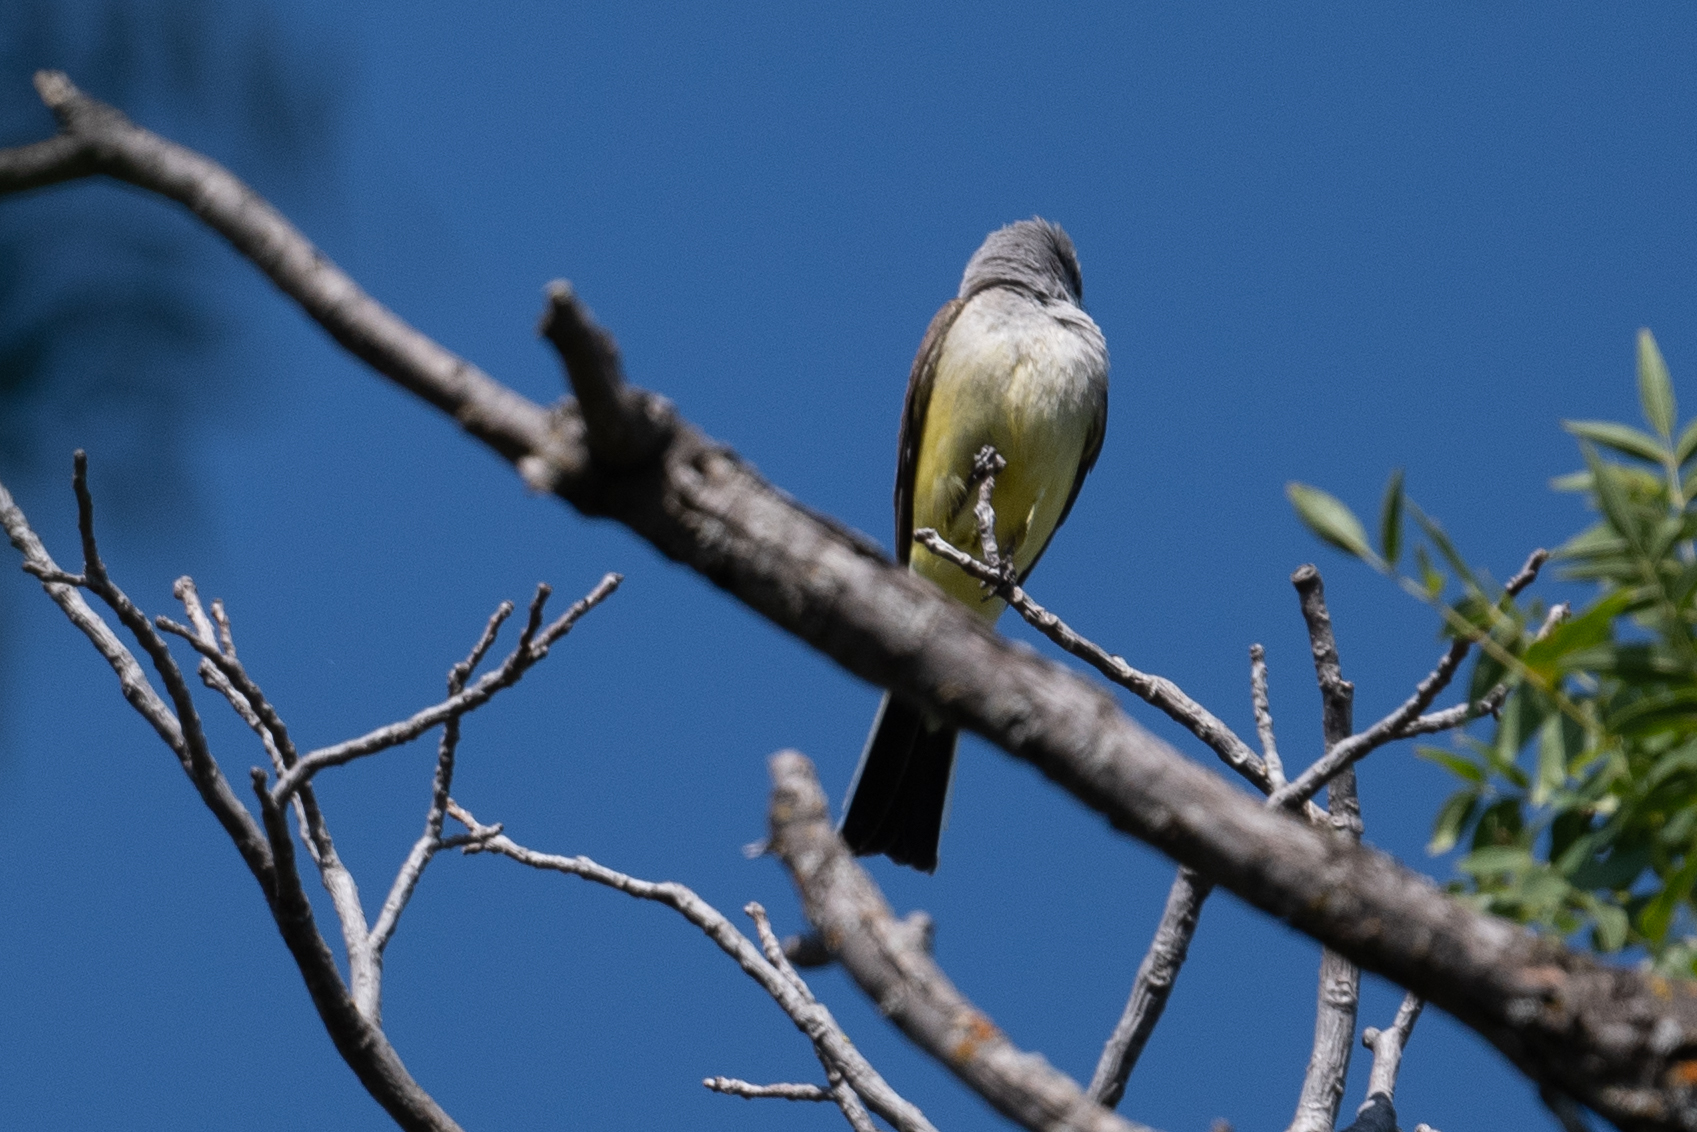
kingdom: Animalia
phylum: Chordata
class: Aves
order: Passeriformes
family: Tyrannidae
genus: Tyrannus
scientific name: Tyrannus verticalis
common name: Western kingbird
